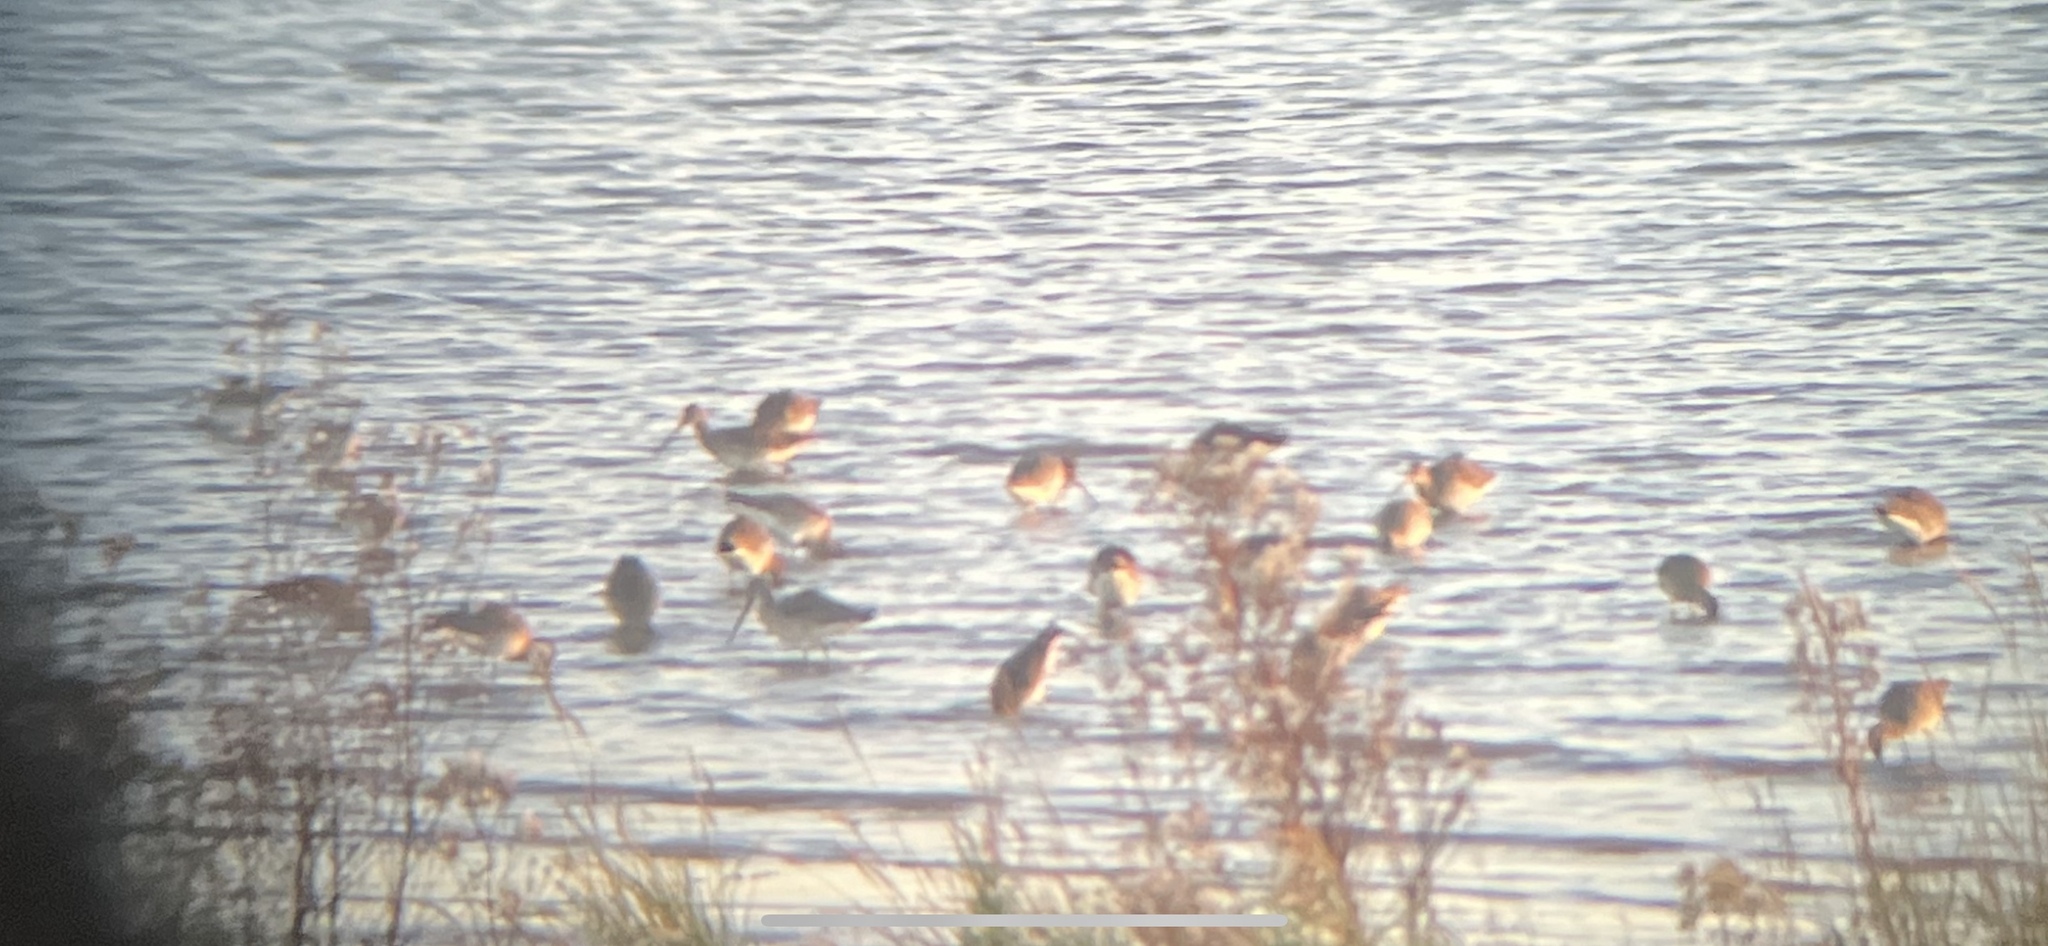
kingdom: Animalia
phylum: Chordata
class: Aves
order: Charadriiformes
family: Scolopacidae
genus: Limosa
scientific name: Limosa limosa
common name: Black-tailed godwit
